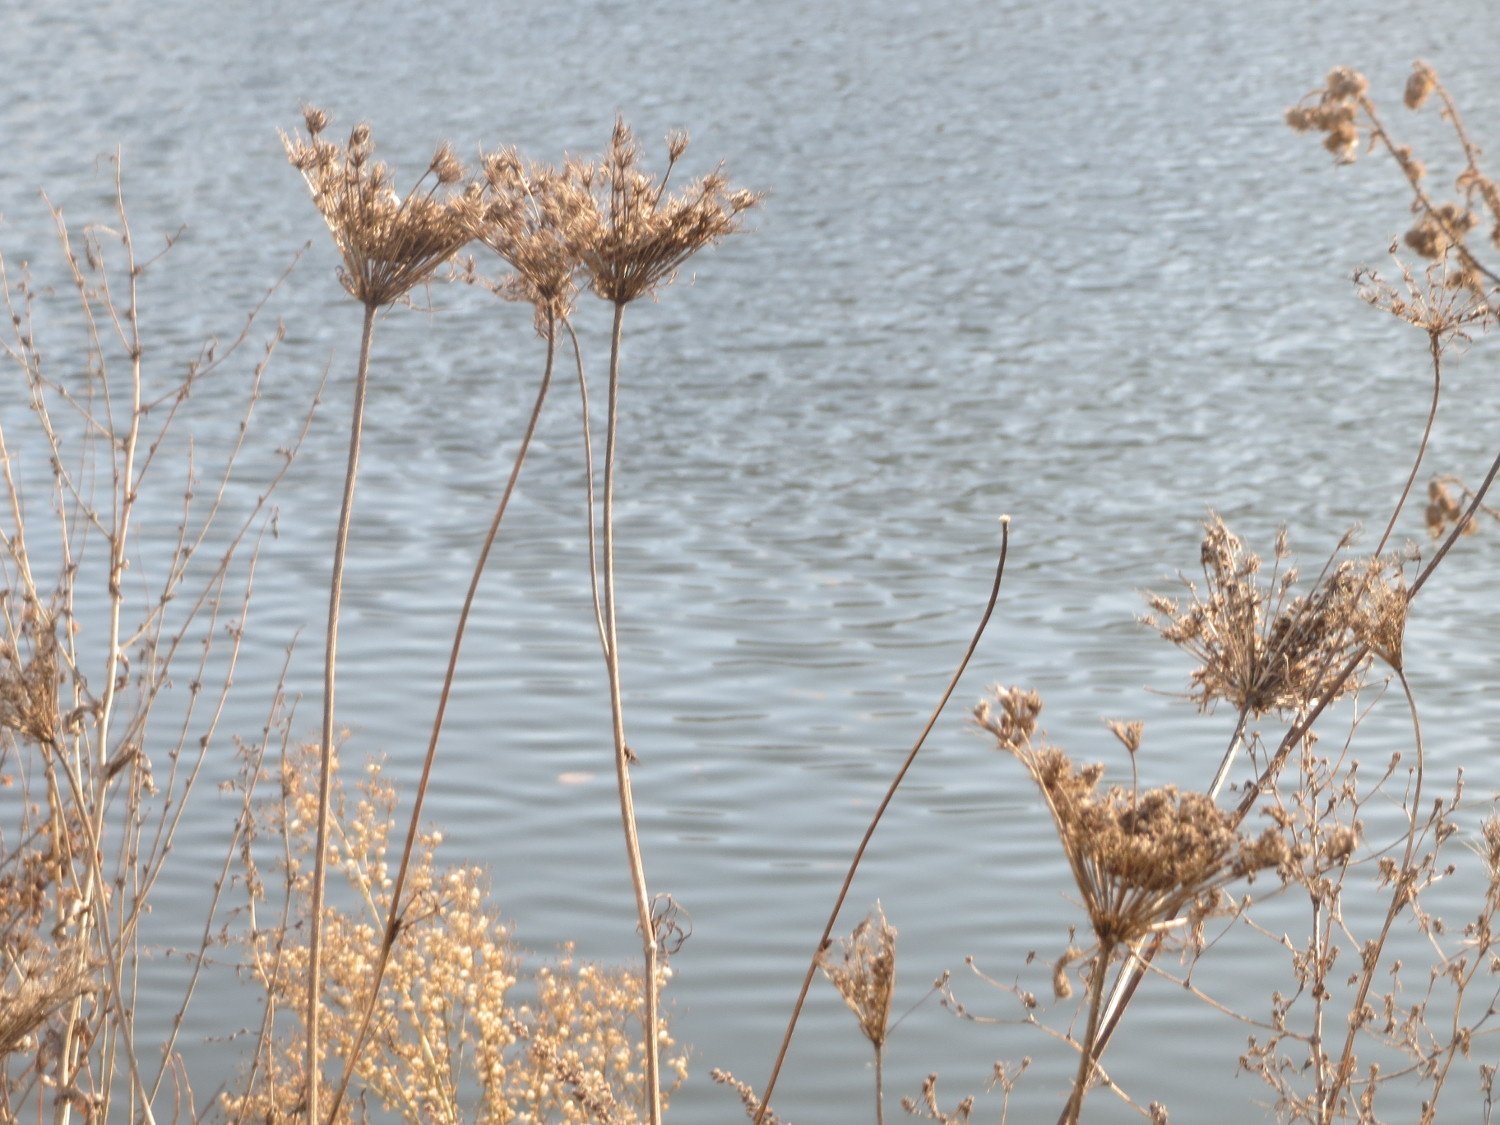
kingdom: Plantae
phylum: Tracheophyta
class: Magnoliopsida
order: Apiales
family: Apiaceae
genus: Daucus
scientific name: Daucus carota
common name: Wild carrot
